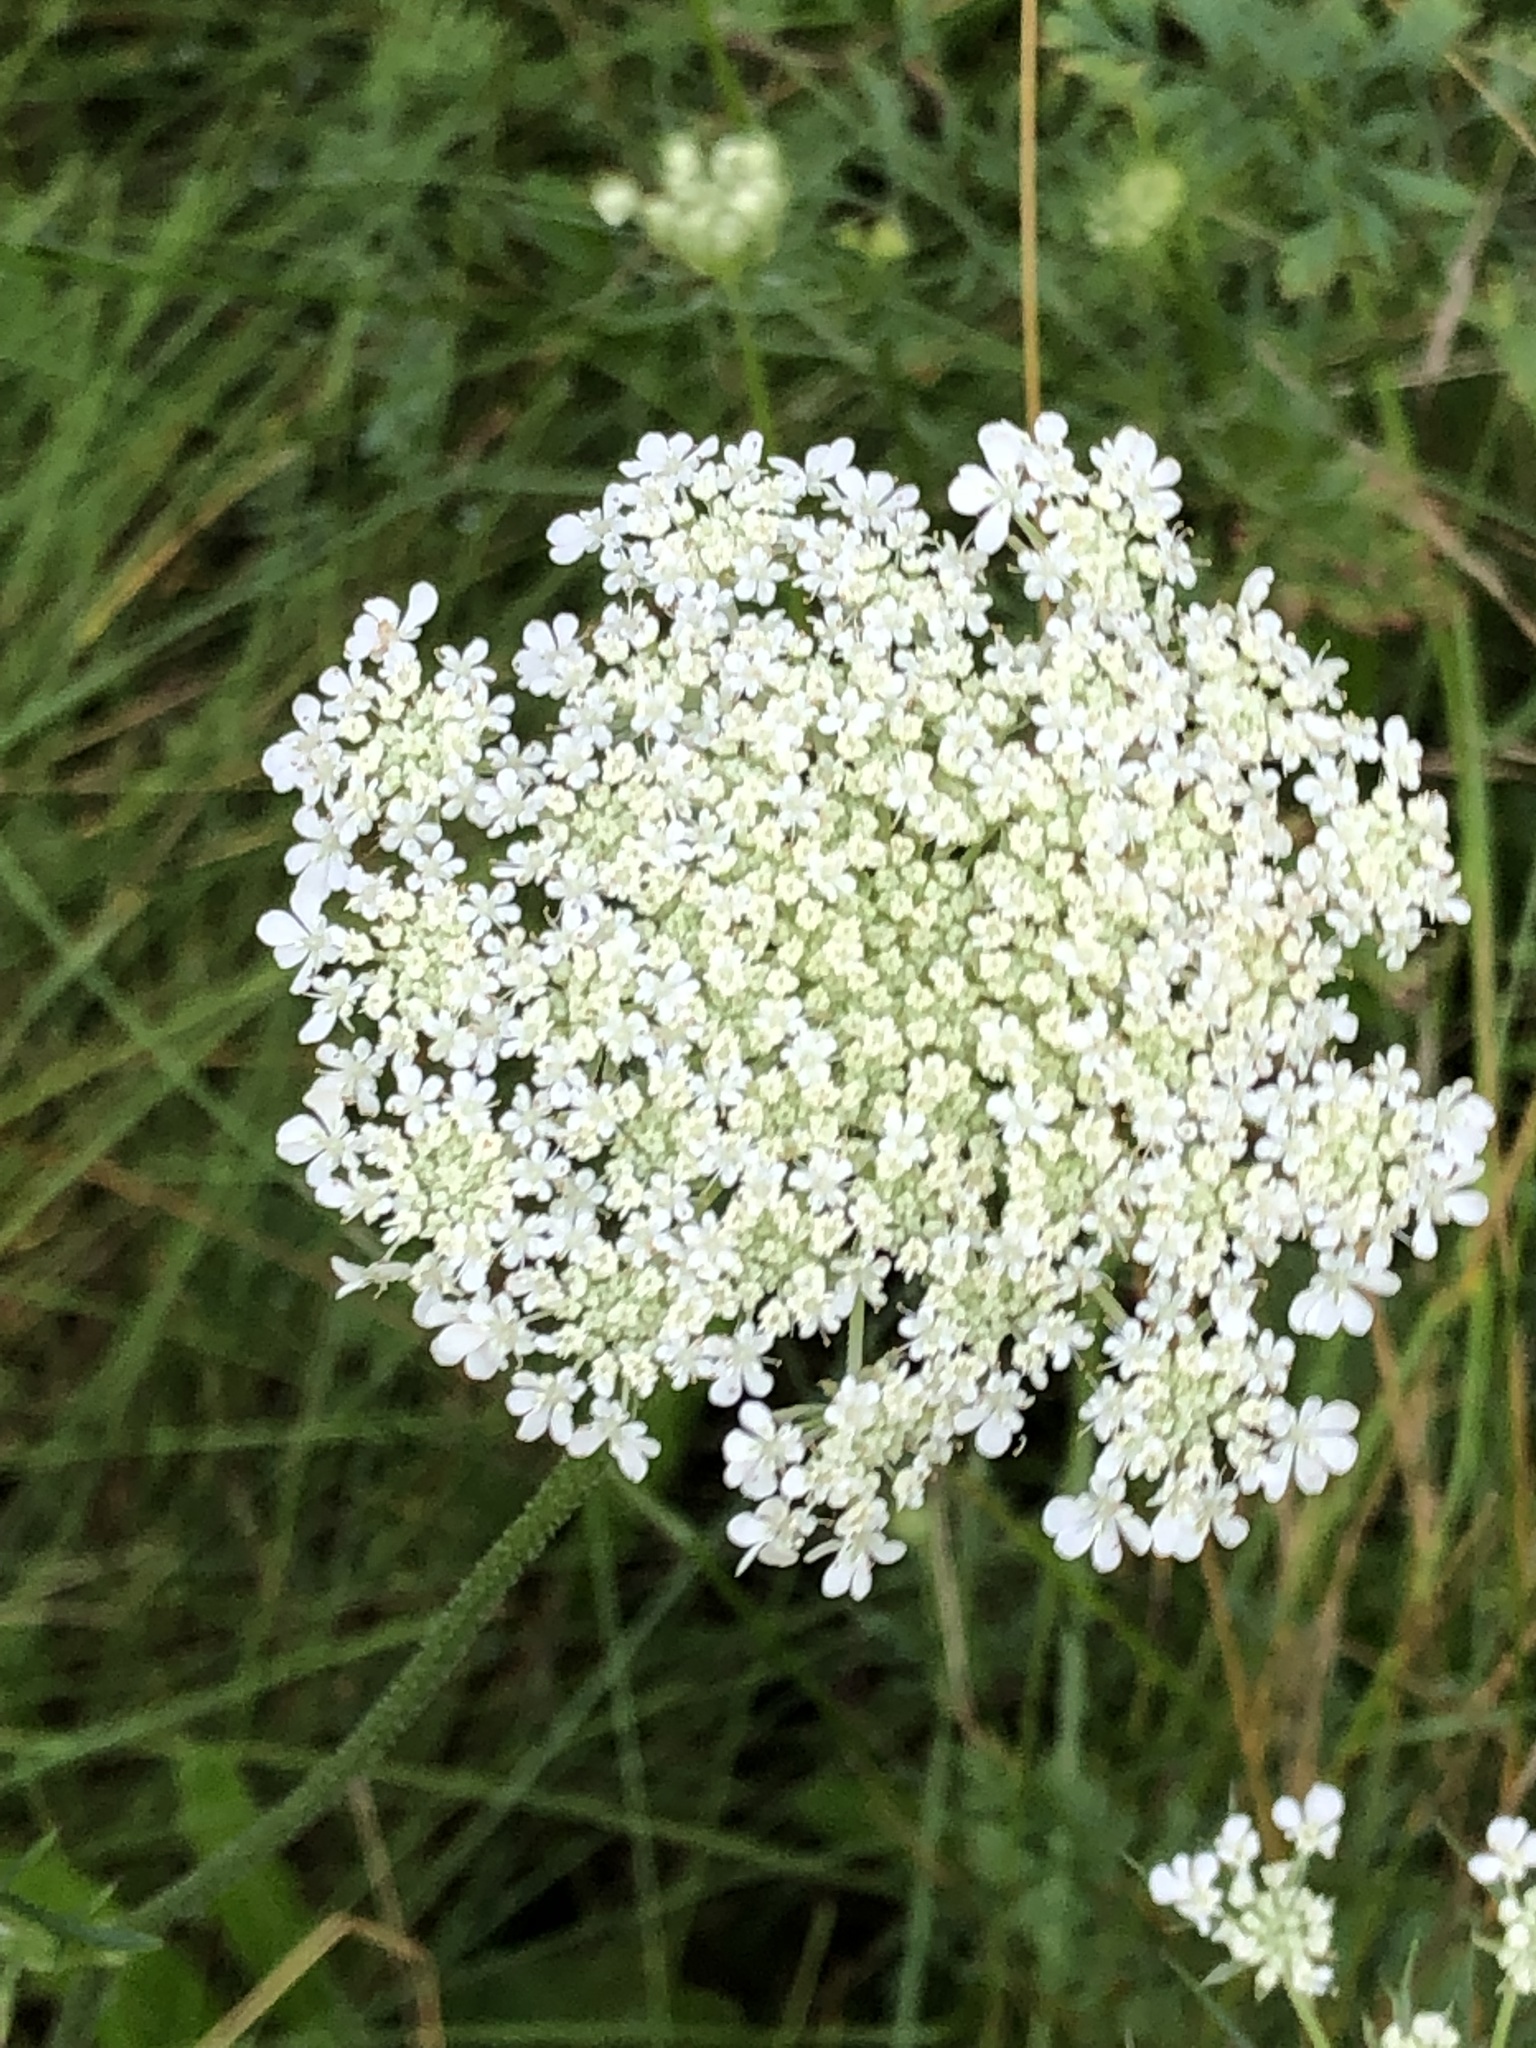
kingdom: Plantae
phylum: Tracheophyta
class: Magnoliopsida
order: Apiales
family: Apiaceae
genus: Daucus
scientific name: Daucus carota
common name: Wild carrot
